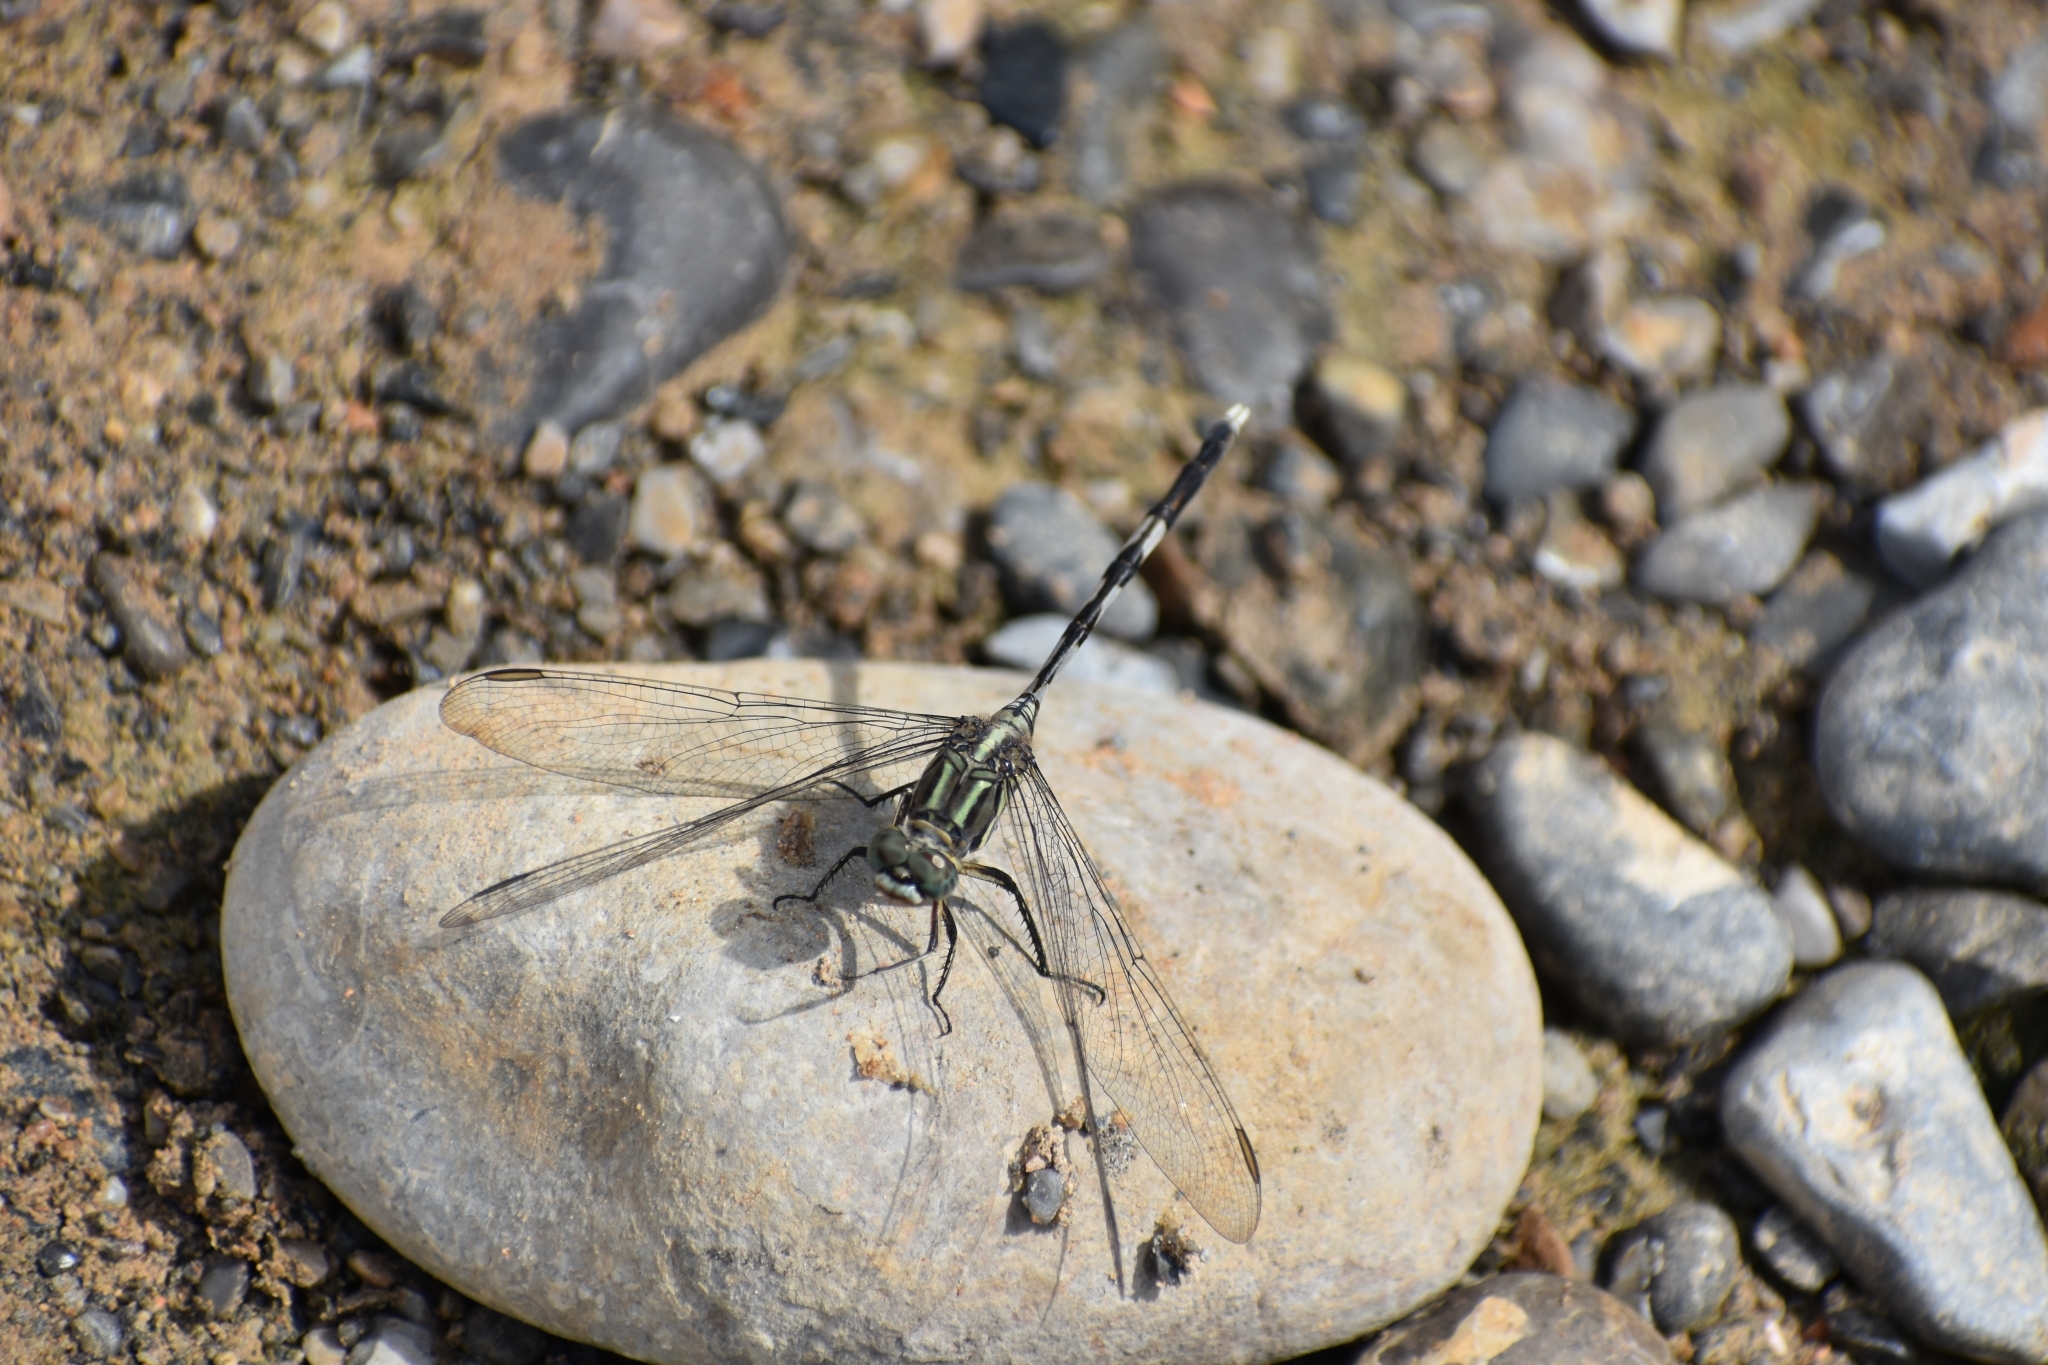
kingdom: Animalia
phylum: Arthropoda
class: Insecta
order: Odonata
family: Libellulidae
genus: Orthetrum
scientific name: Orthetrum sabina
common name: Slender skimmer
